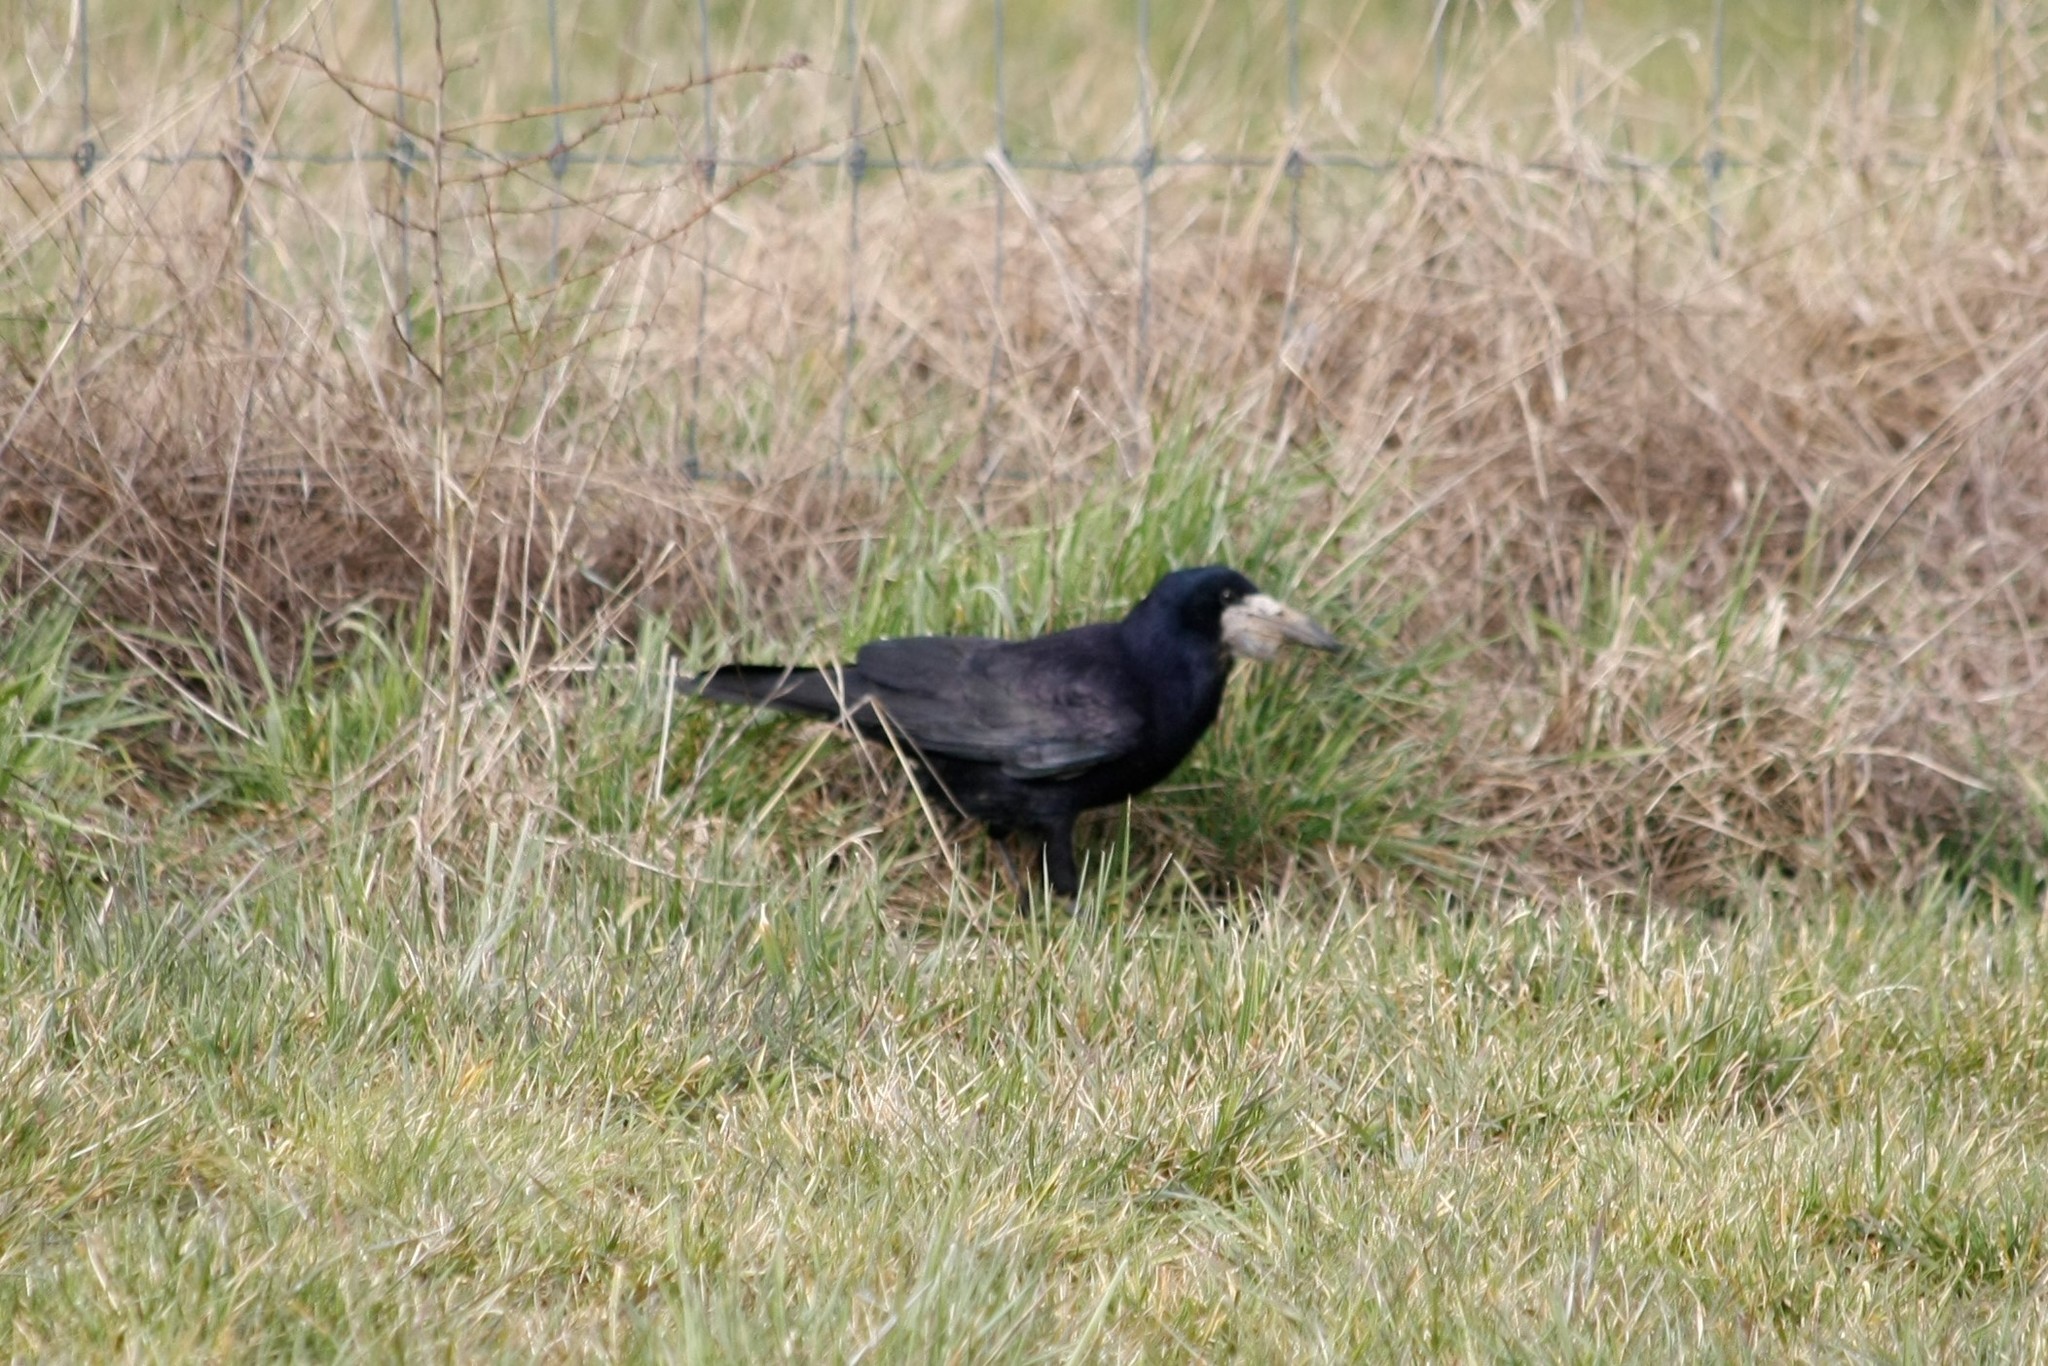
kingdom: Animalia
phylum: Chordata
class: Aves
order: Passeriformes
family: Corvidae
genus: Corvus
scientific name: Corvus frugilegus
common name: Rook
